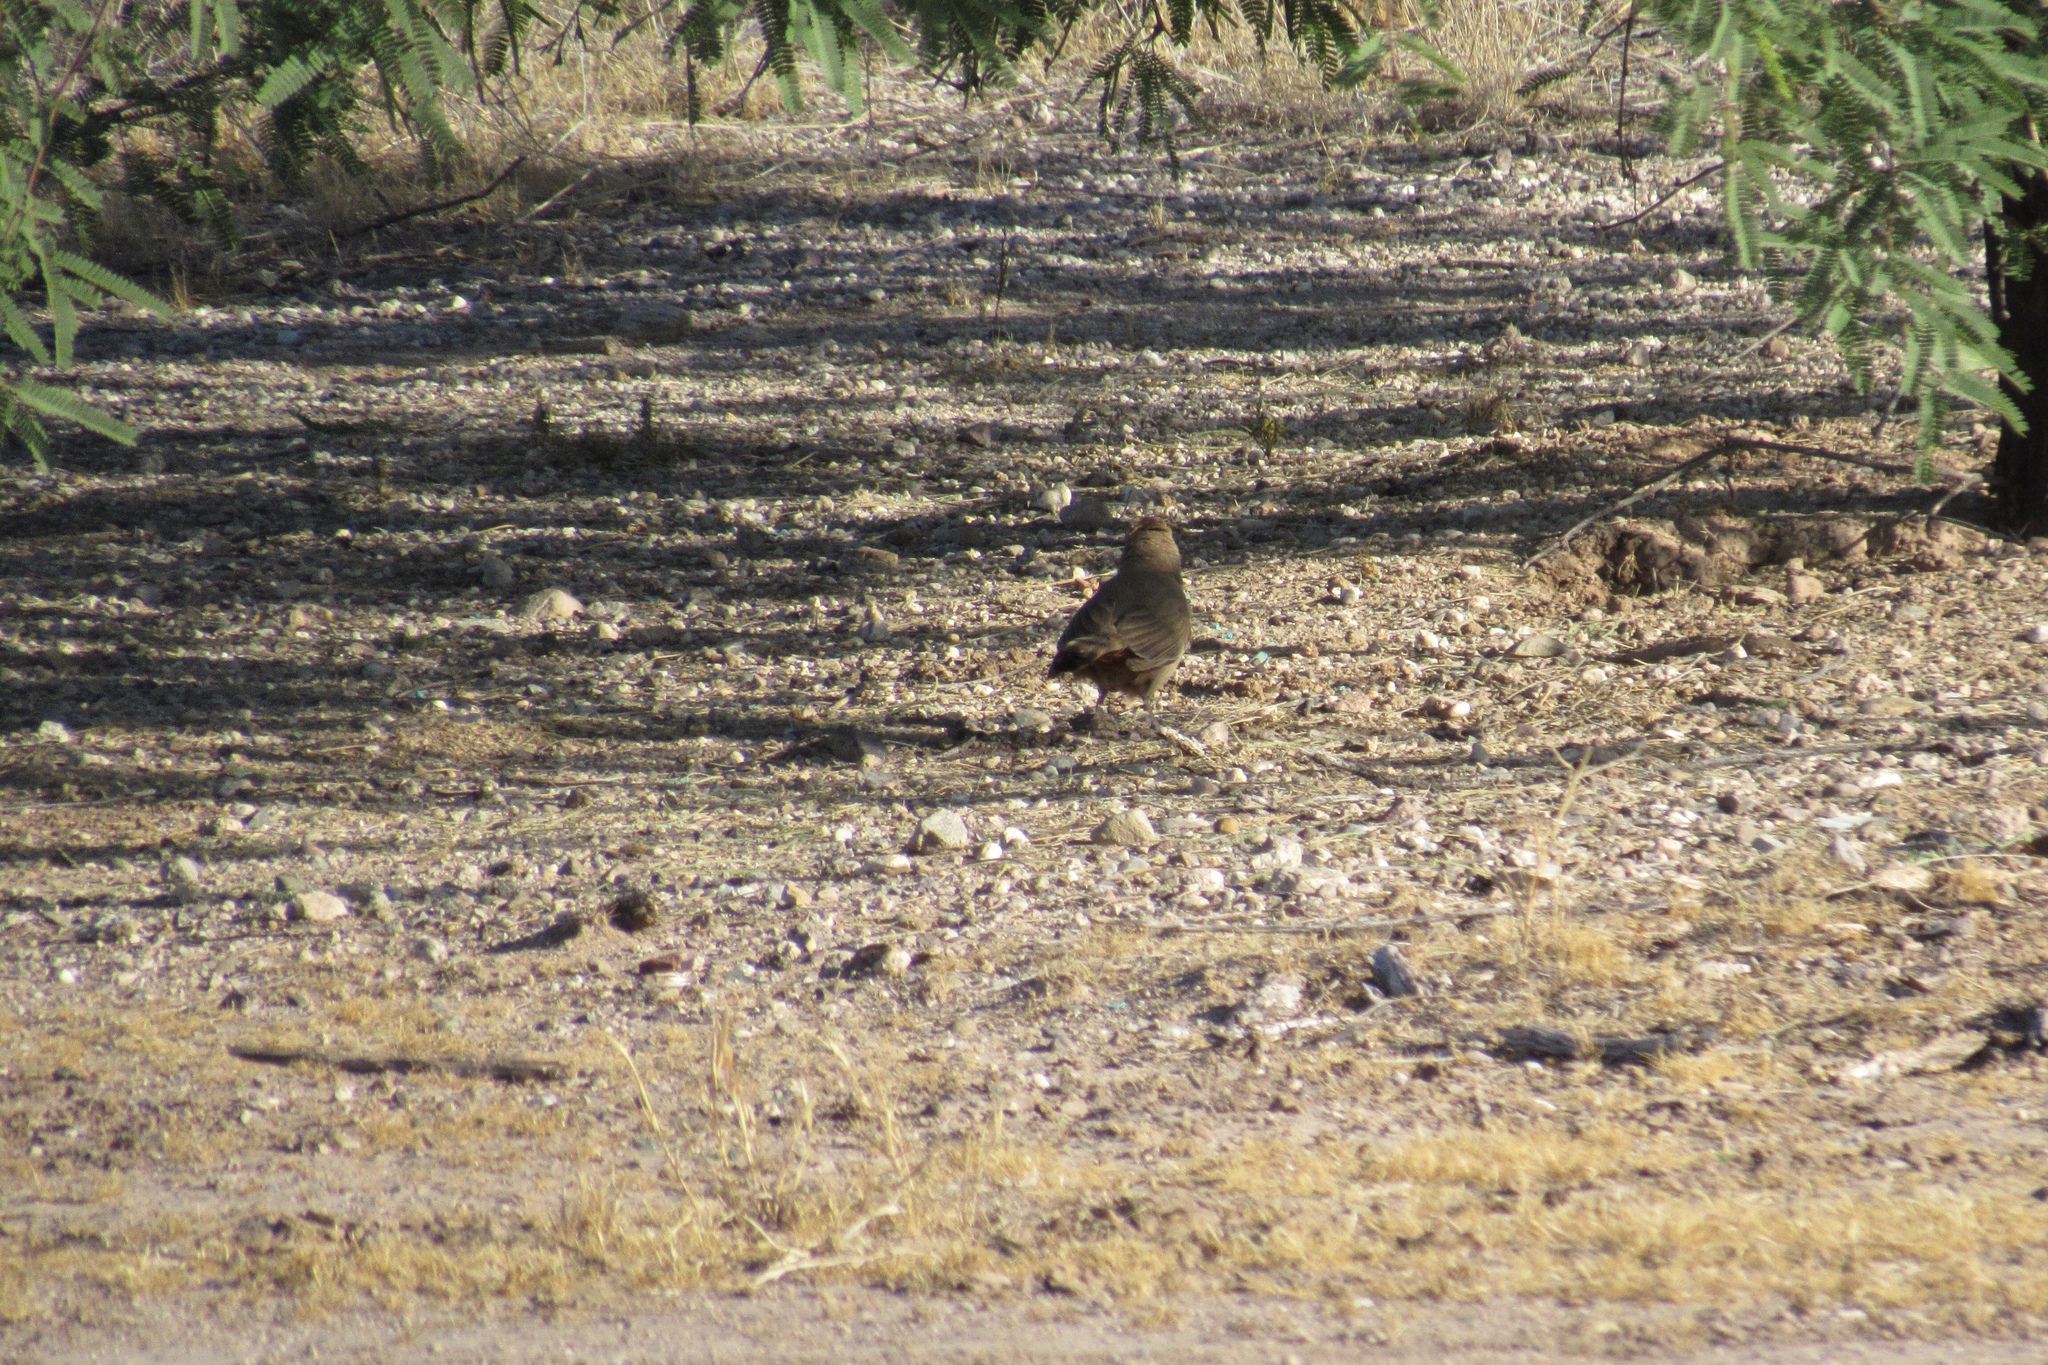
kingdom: Animalia
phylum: Chordata
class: Aves
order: Passeriformes
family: Passerellidae
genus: Melozone
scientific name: Melozone aberti
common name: Abert's towhee
